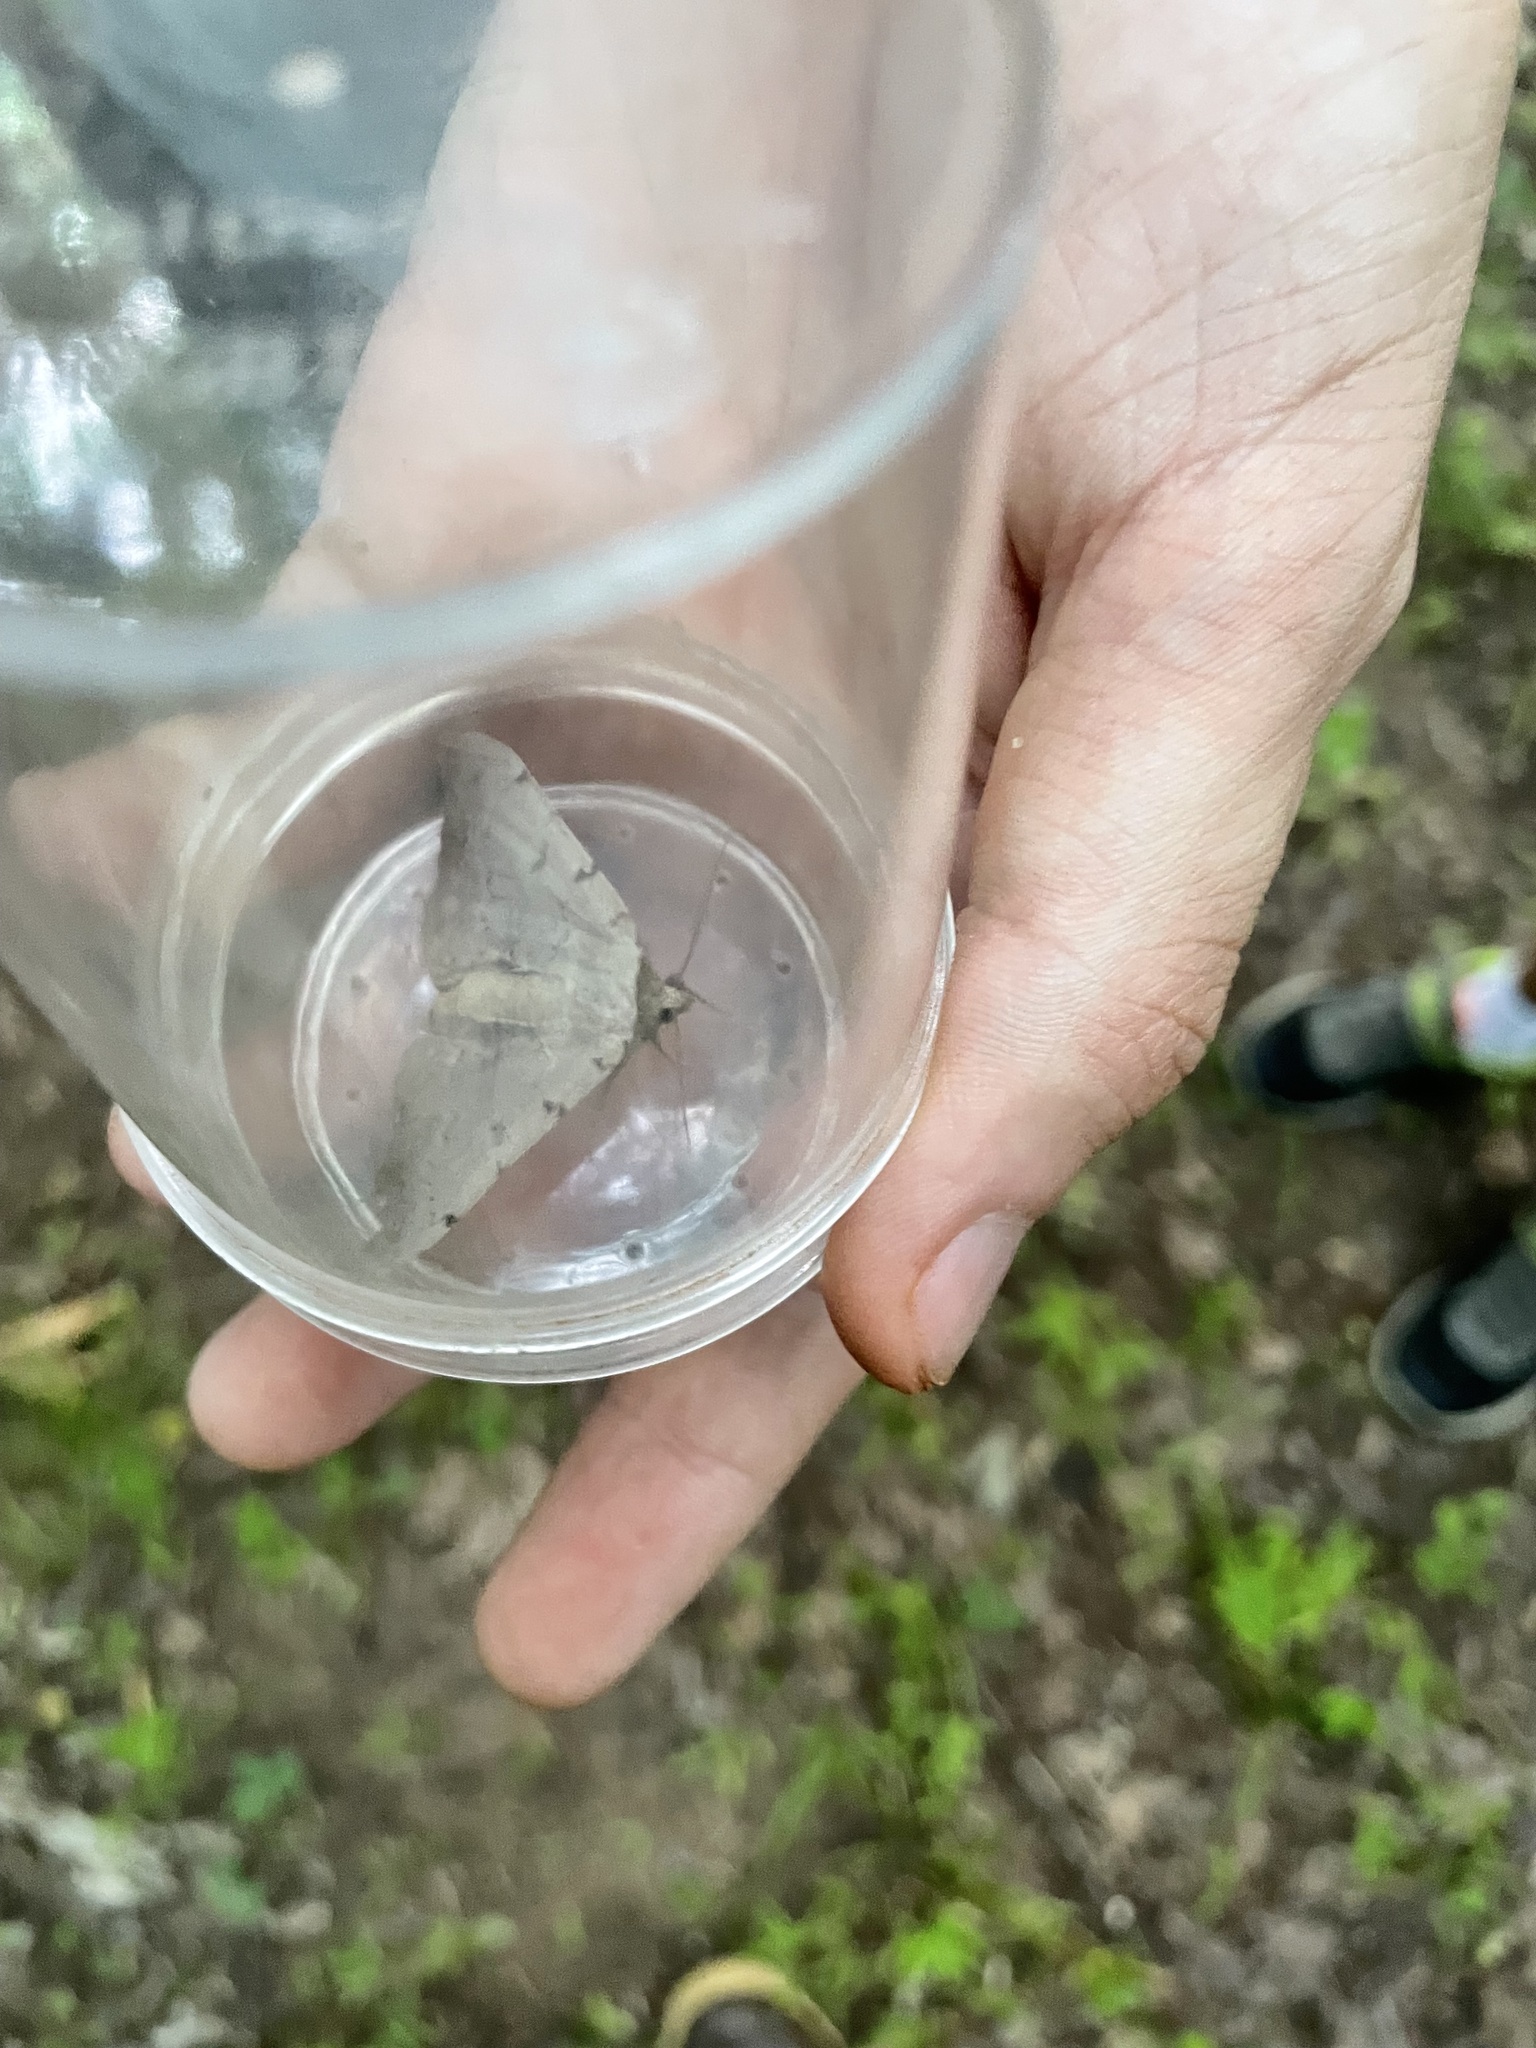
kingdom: Animalia
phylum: Arthropoda
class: Insecta
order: Lepidoptera
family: Erebidae
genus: Spiloloma
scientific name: Spiloloma lunilinea
